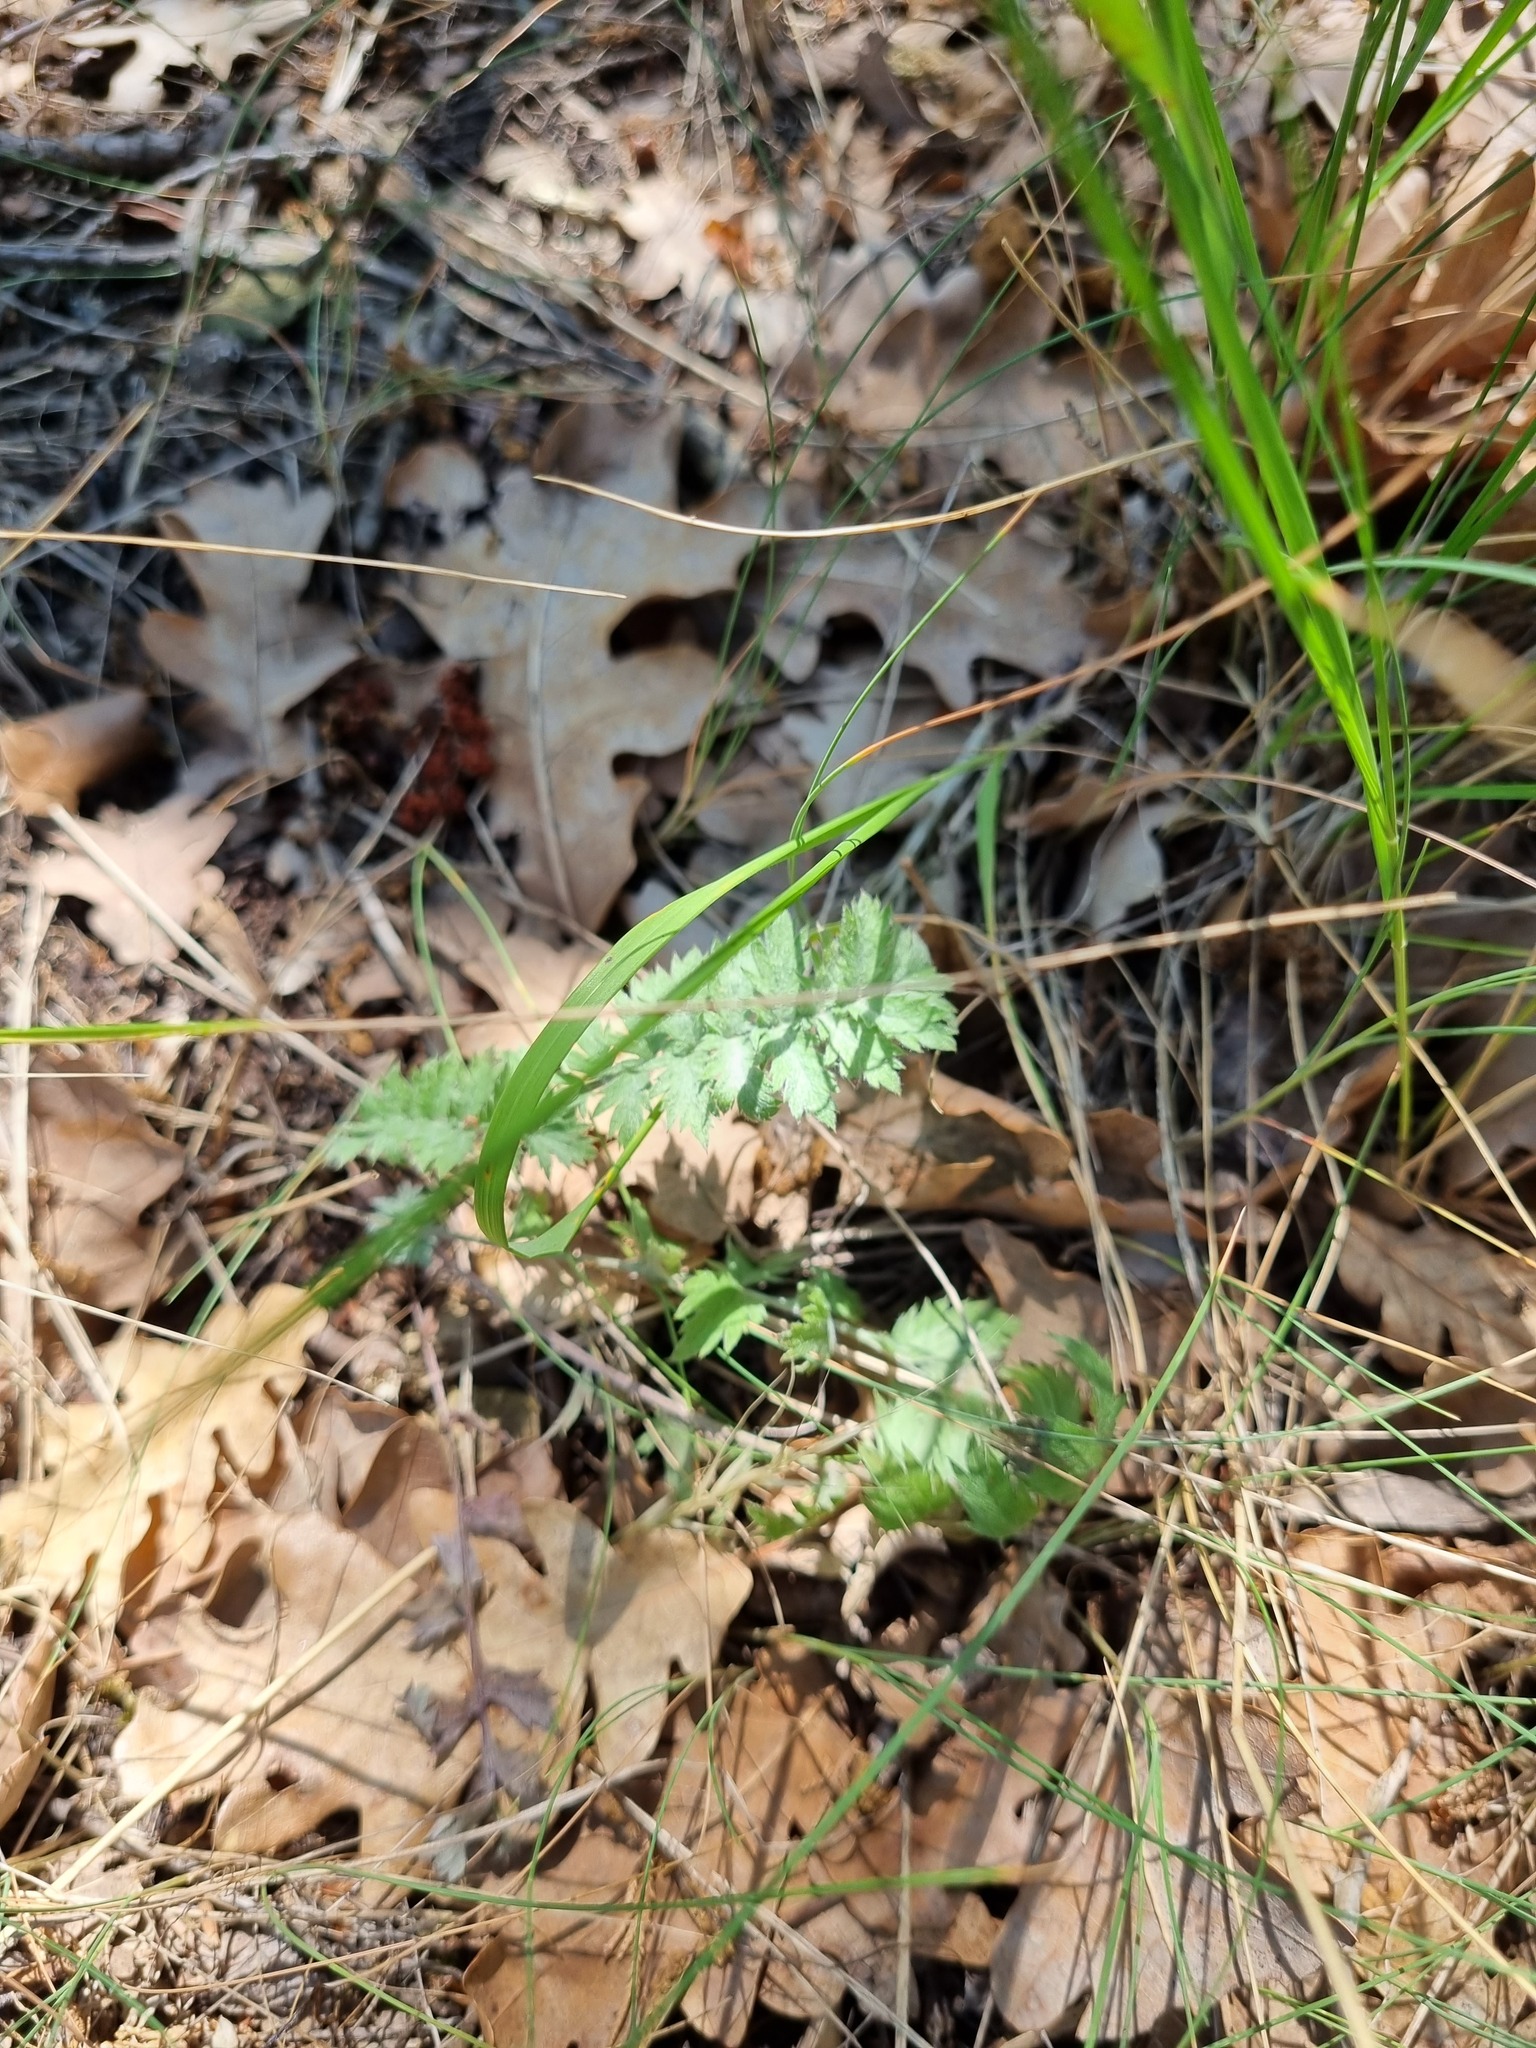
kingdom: Plantae
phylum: Tracheophyta
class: Magnoliopsida
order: Asterales
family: Asteraceae
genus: Tanacetum
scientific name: Tanacetum poteriifolium
